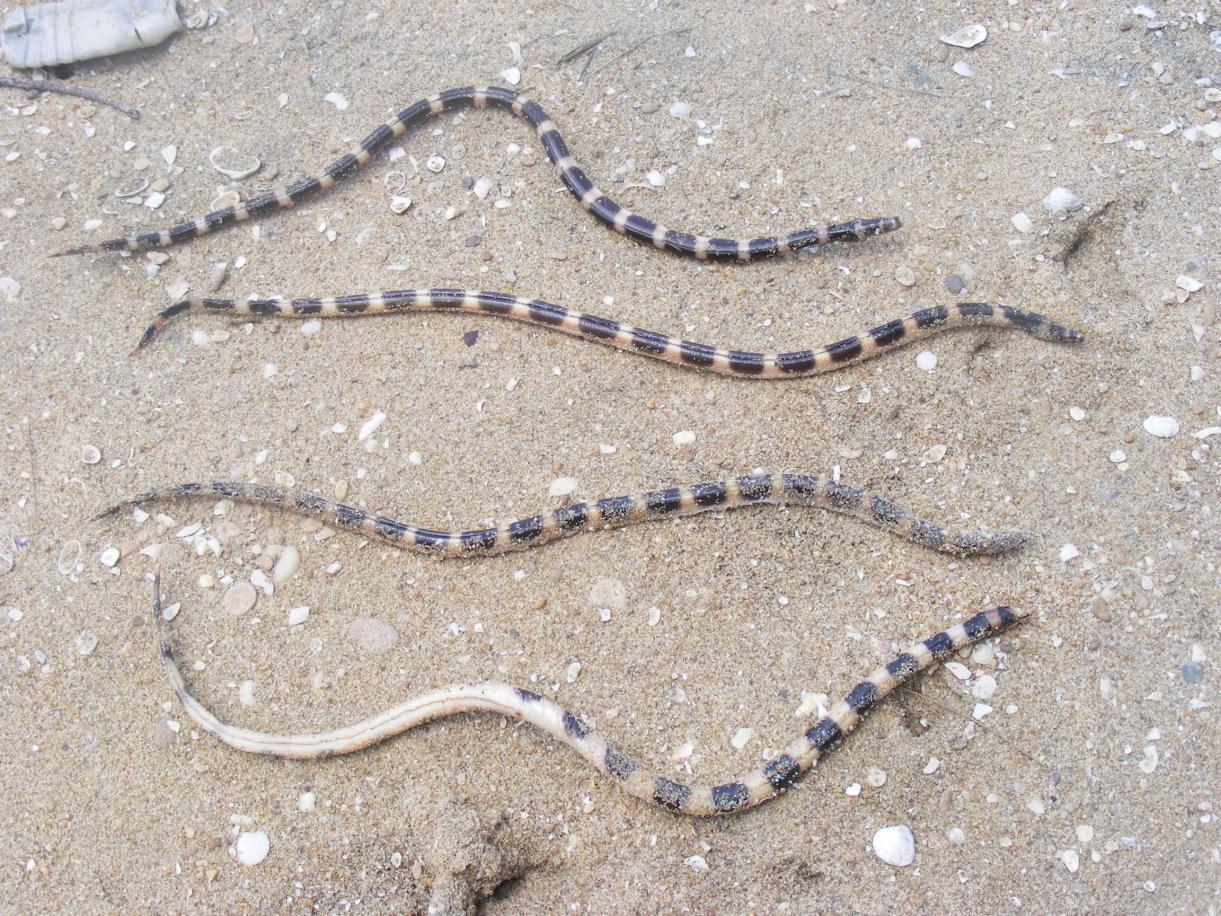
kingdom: Animalia
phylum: Chordata
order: Anguilliformes
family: Ophichthidae
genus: Leiuranus
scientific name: Leiuranus semicinctus
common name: Saddled snake eel
